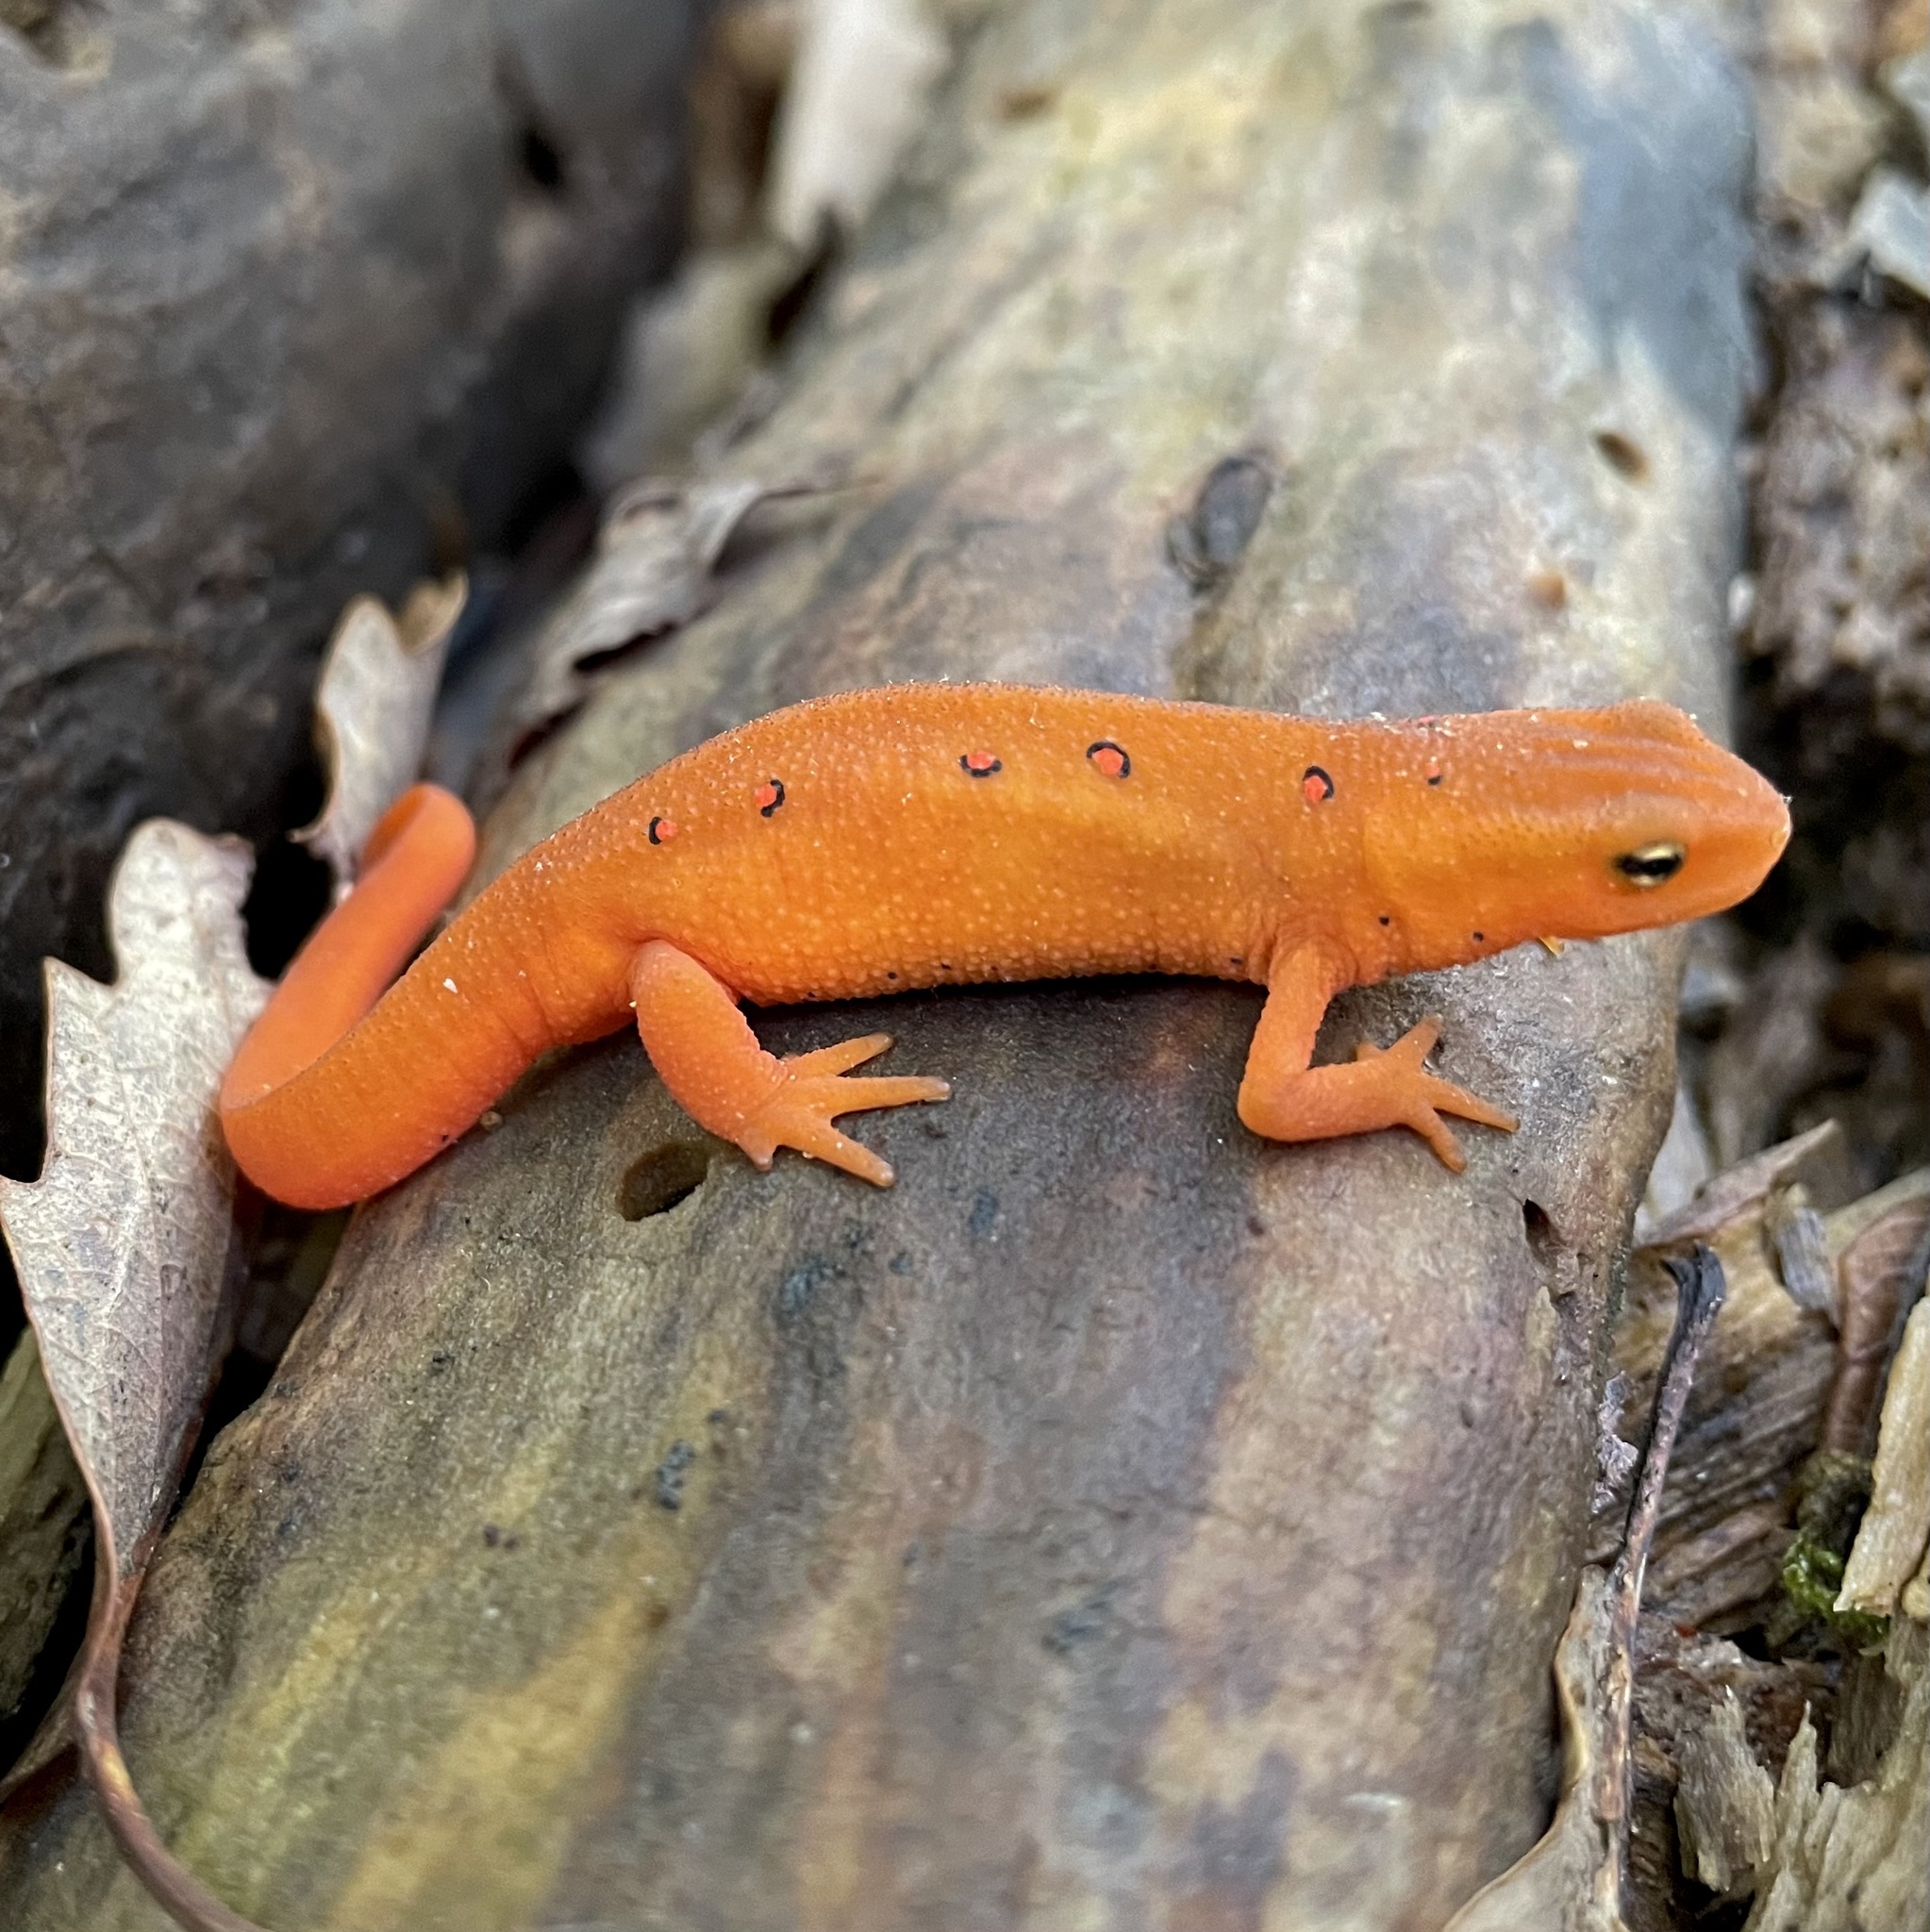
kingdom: Animalia
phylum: Chordata
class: Amphibia
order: Caudata
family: Salamandridae
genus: Notophthalmus
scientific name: Notophthalmus viridescens
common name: Eastern newt
